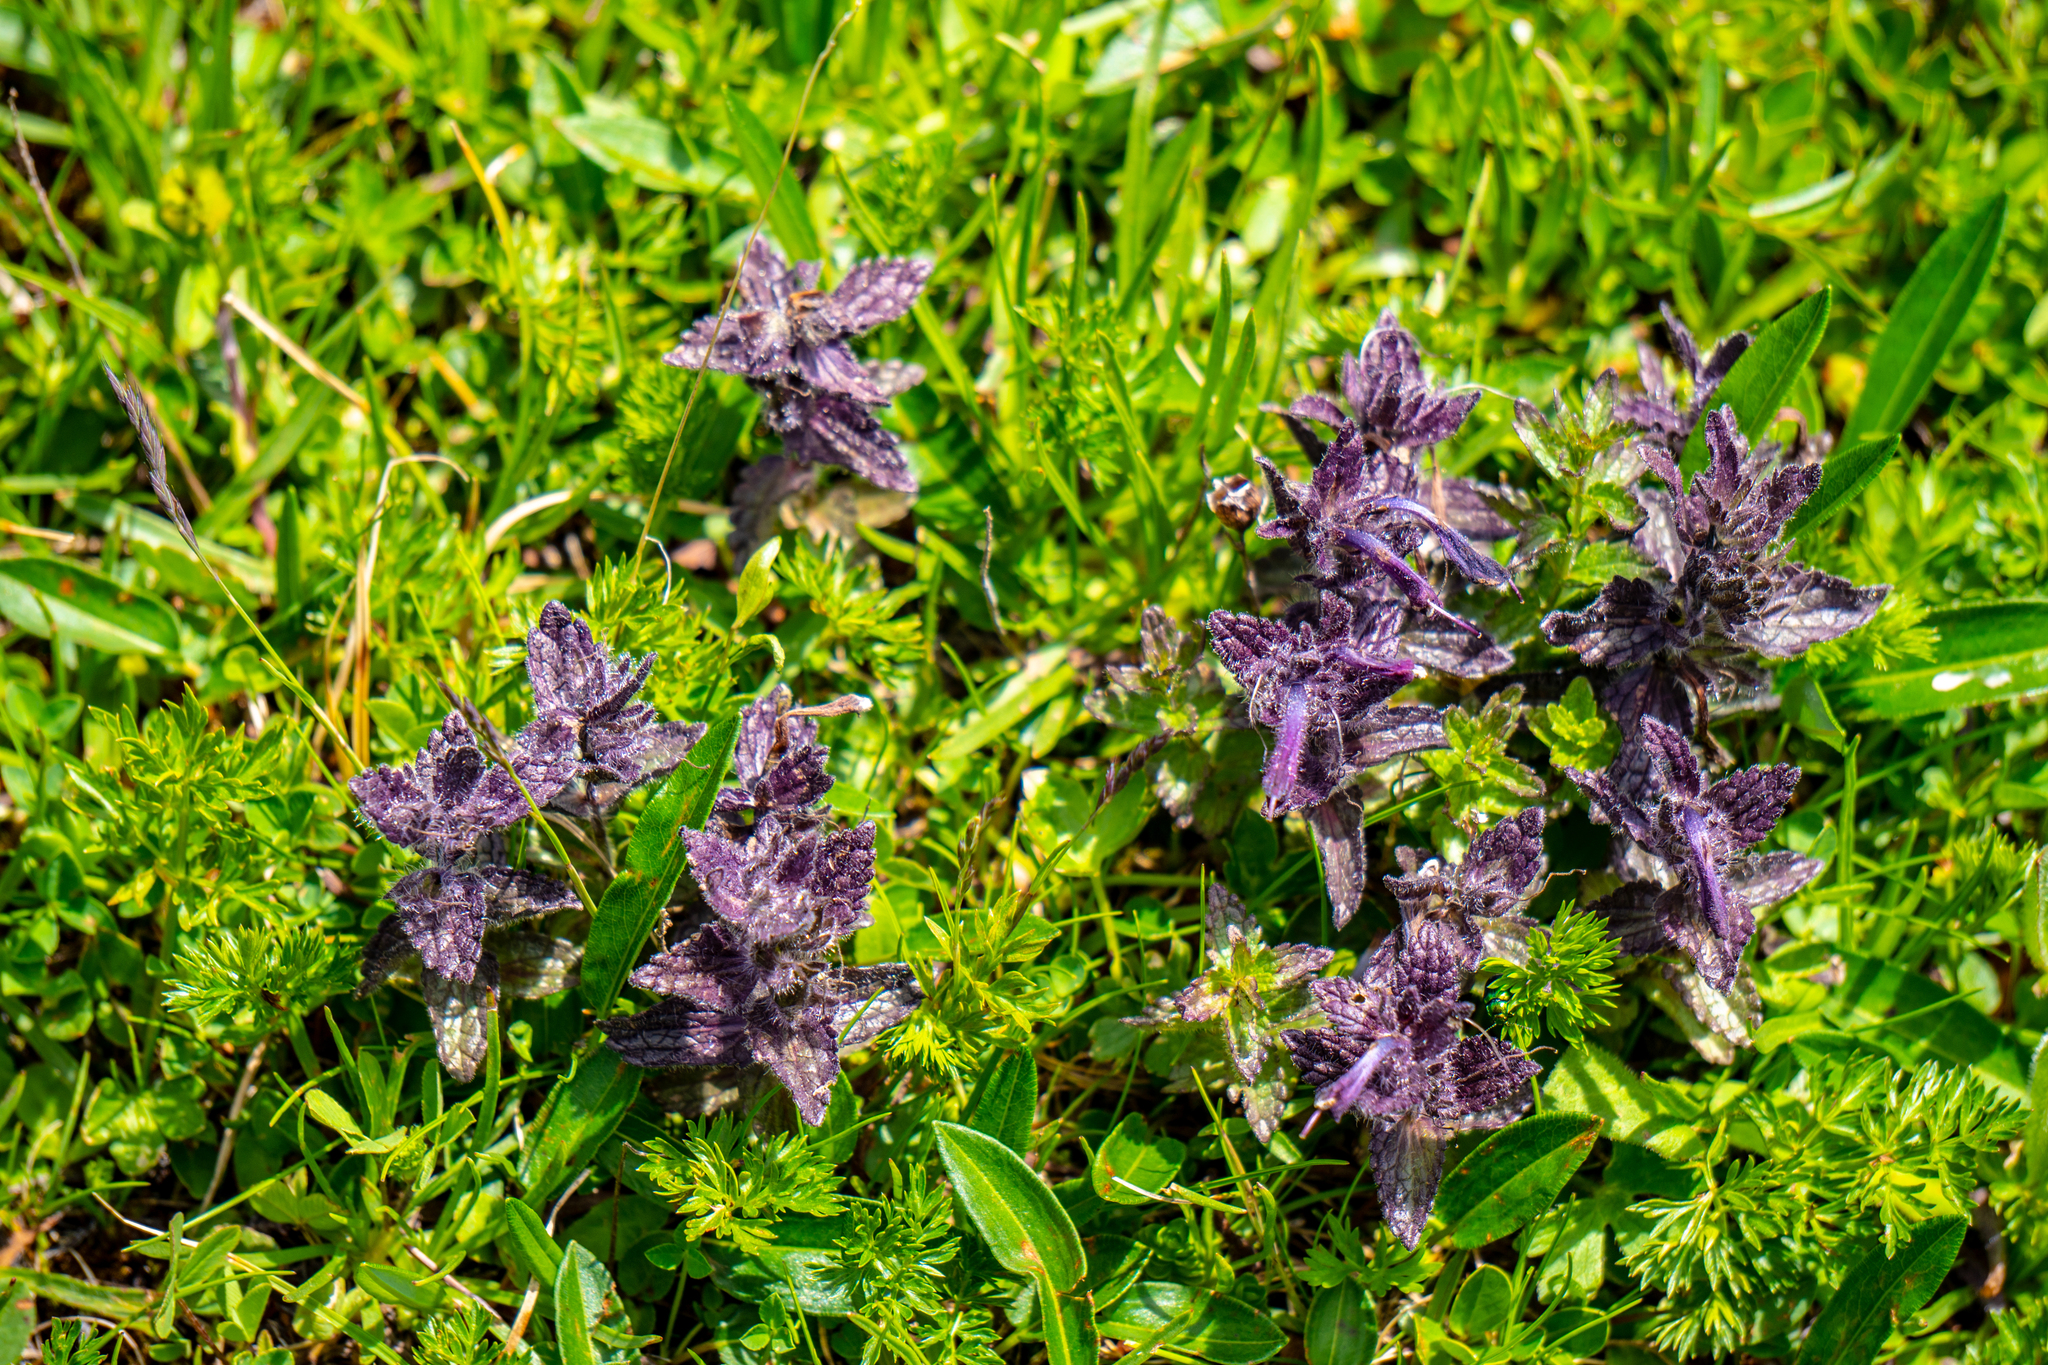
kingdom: Plantae
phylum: Tracheophyta
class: Magnoliopsida
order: Lamiales
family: Orobanchaceae
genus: Bartsia
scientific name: Bartsia alpina
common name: Alpine bartsia
